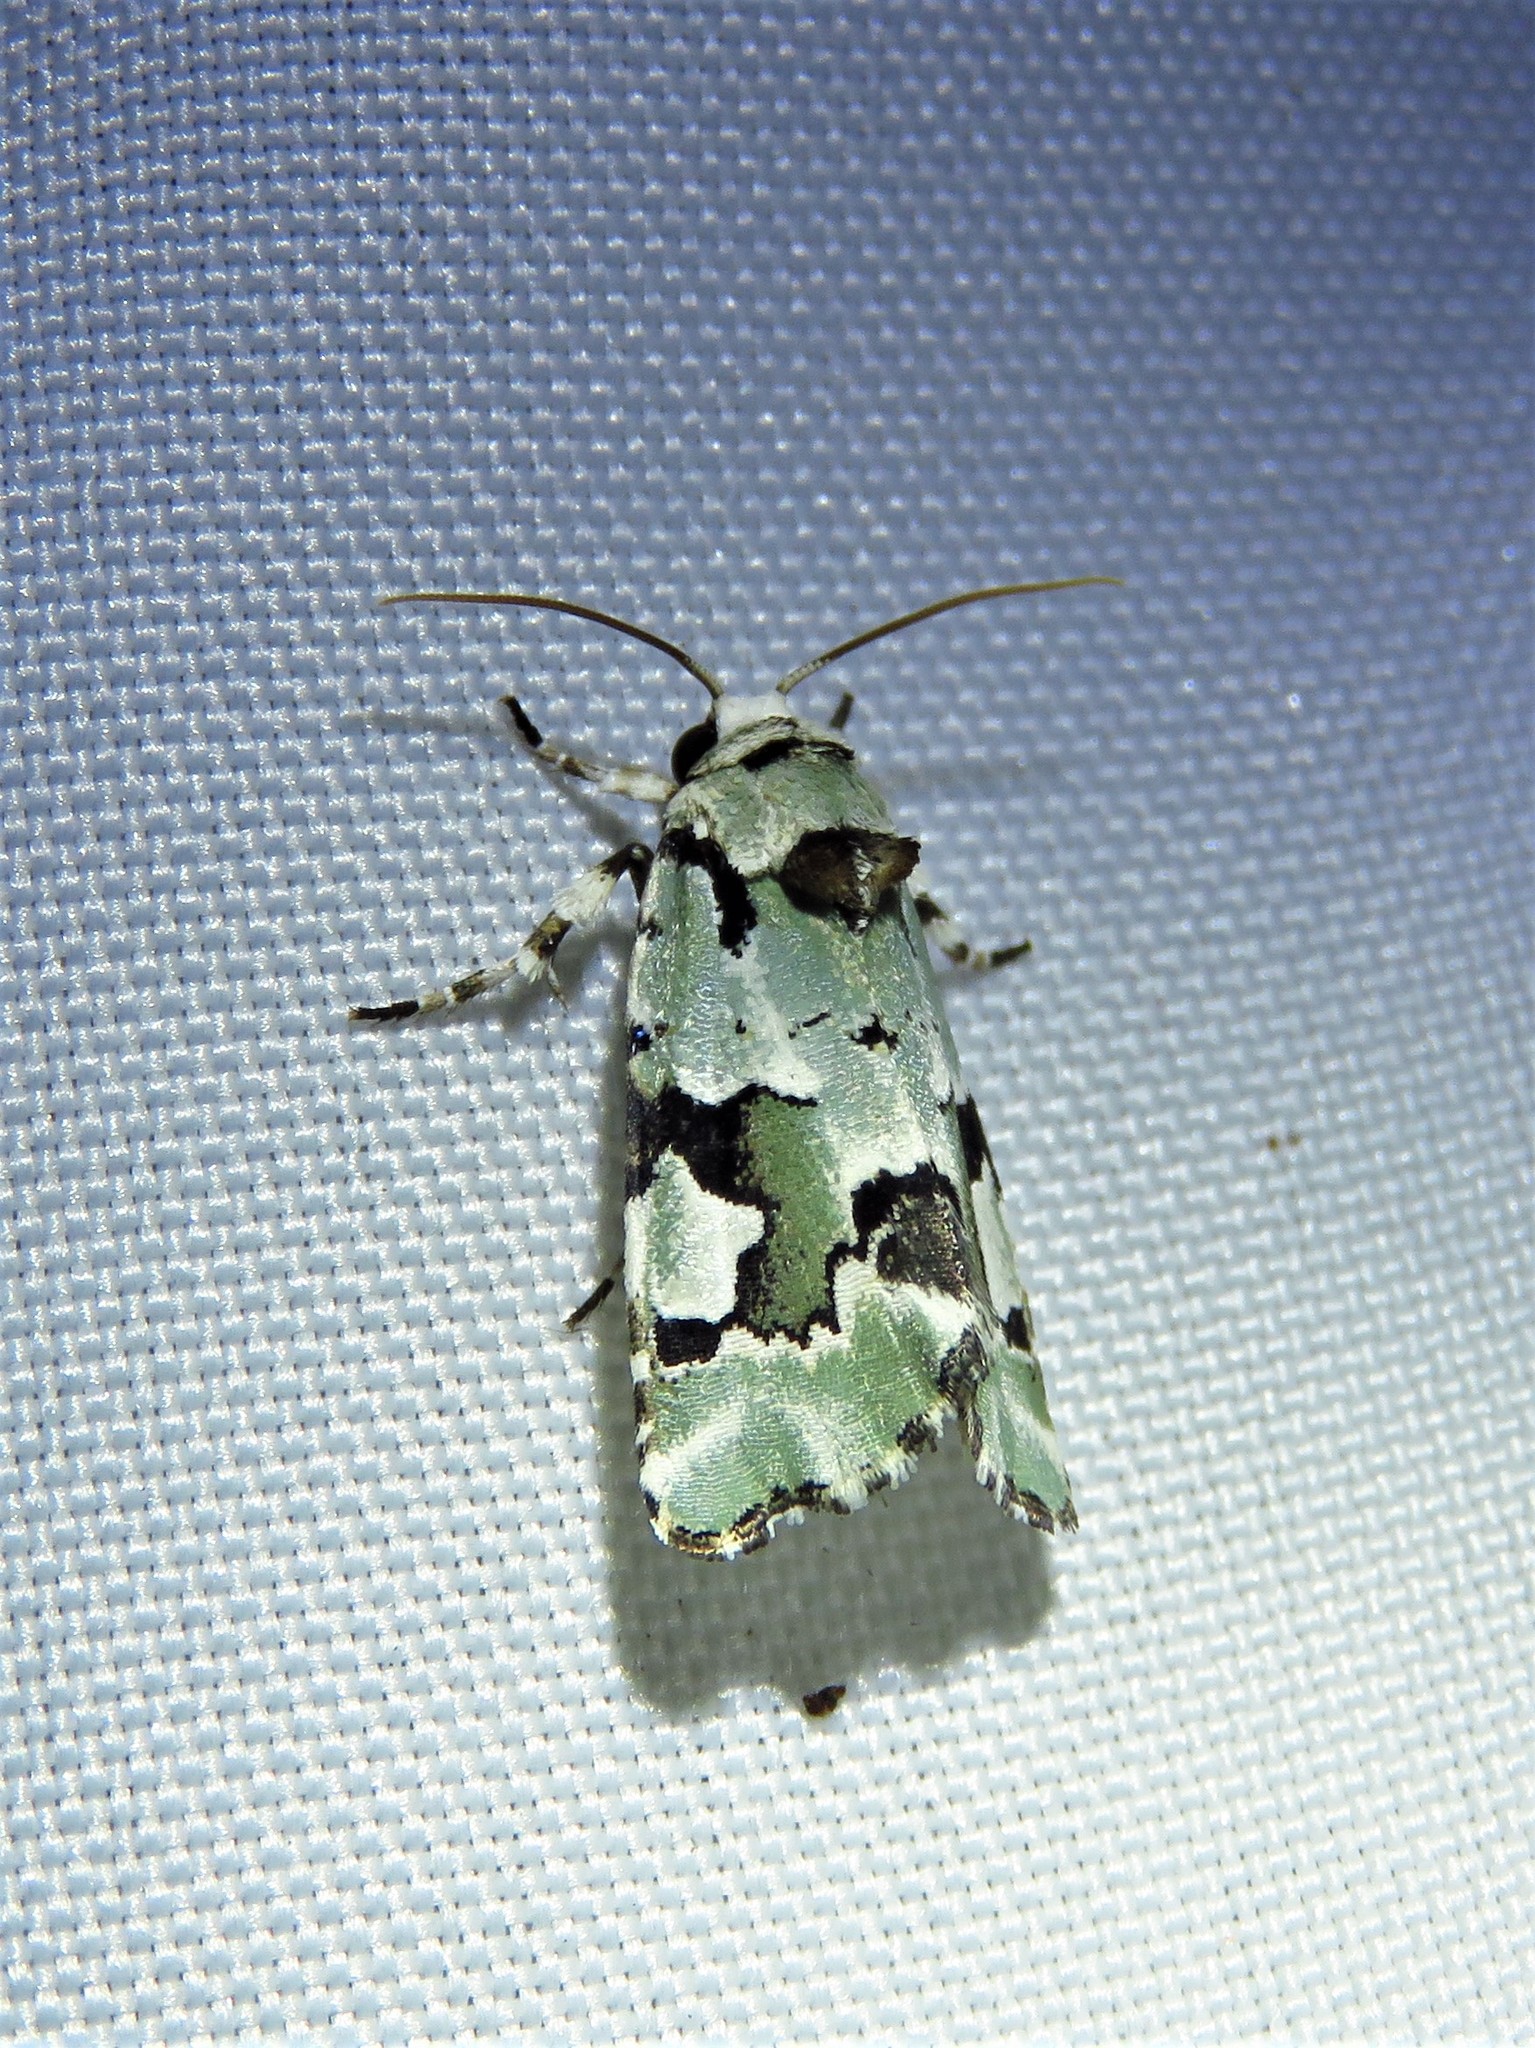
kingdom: Animalia
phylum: Arthropoda
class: Insecta
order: Lepidoptera
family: Noctuidae
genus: Emarginea
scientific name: Emarginea percara
